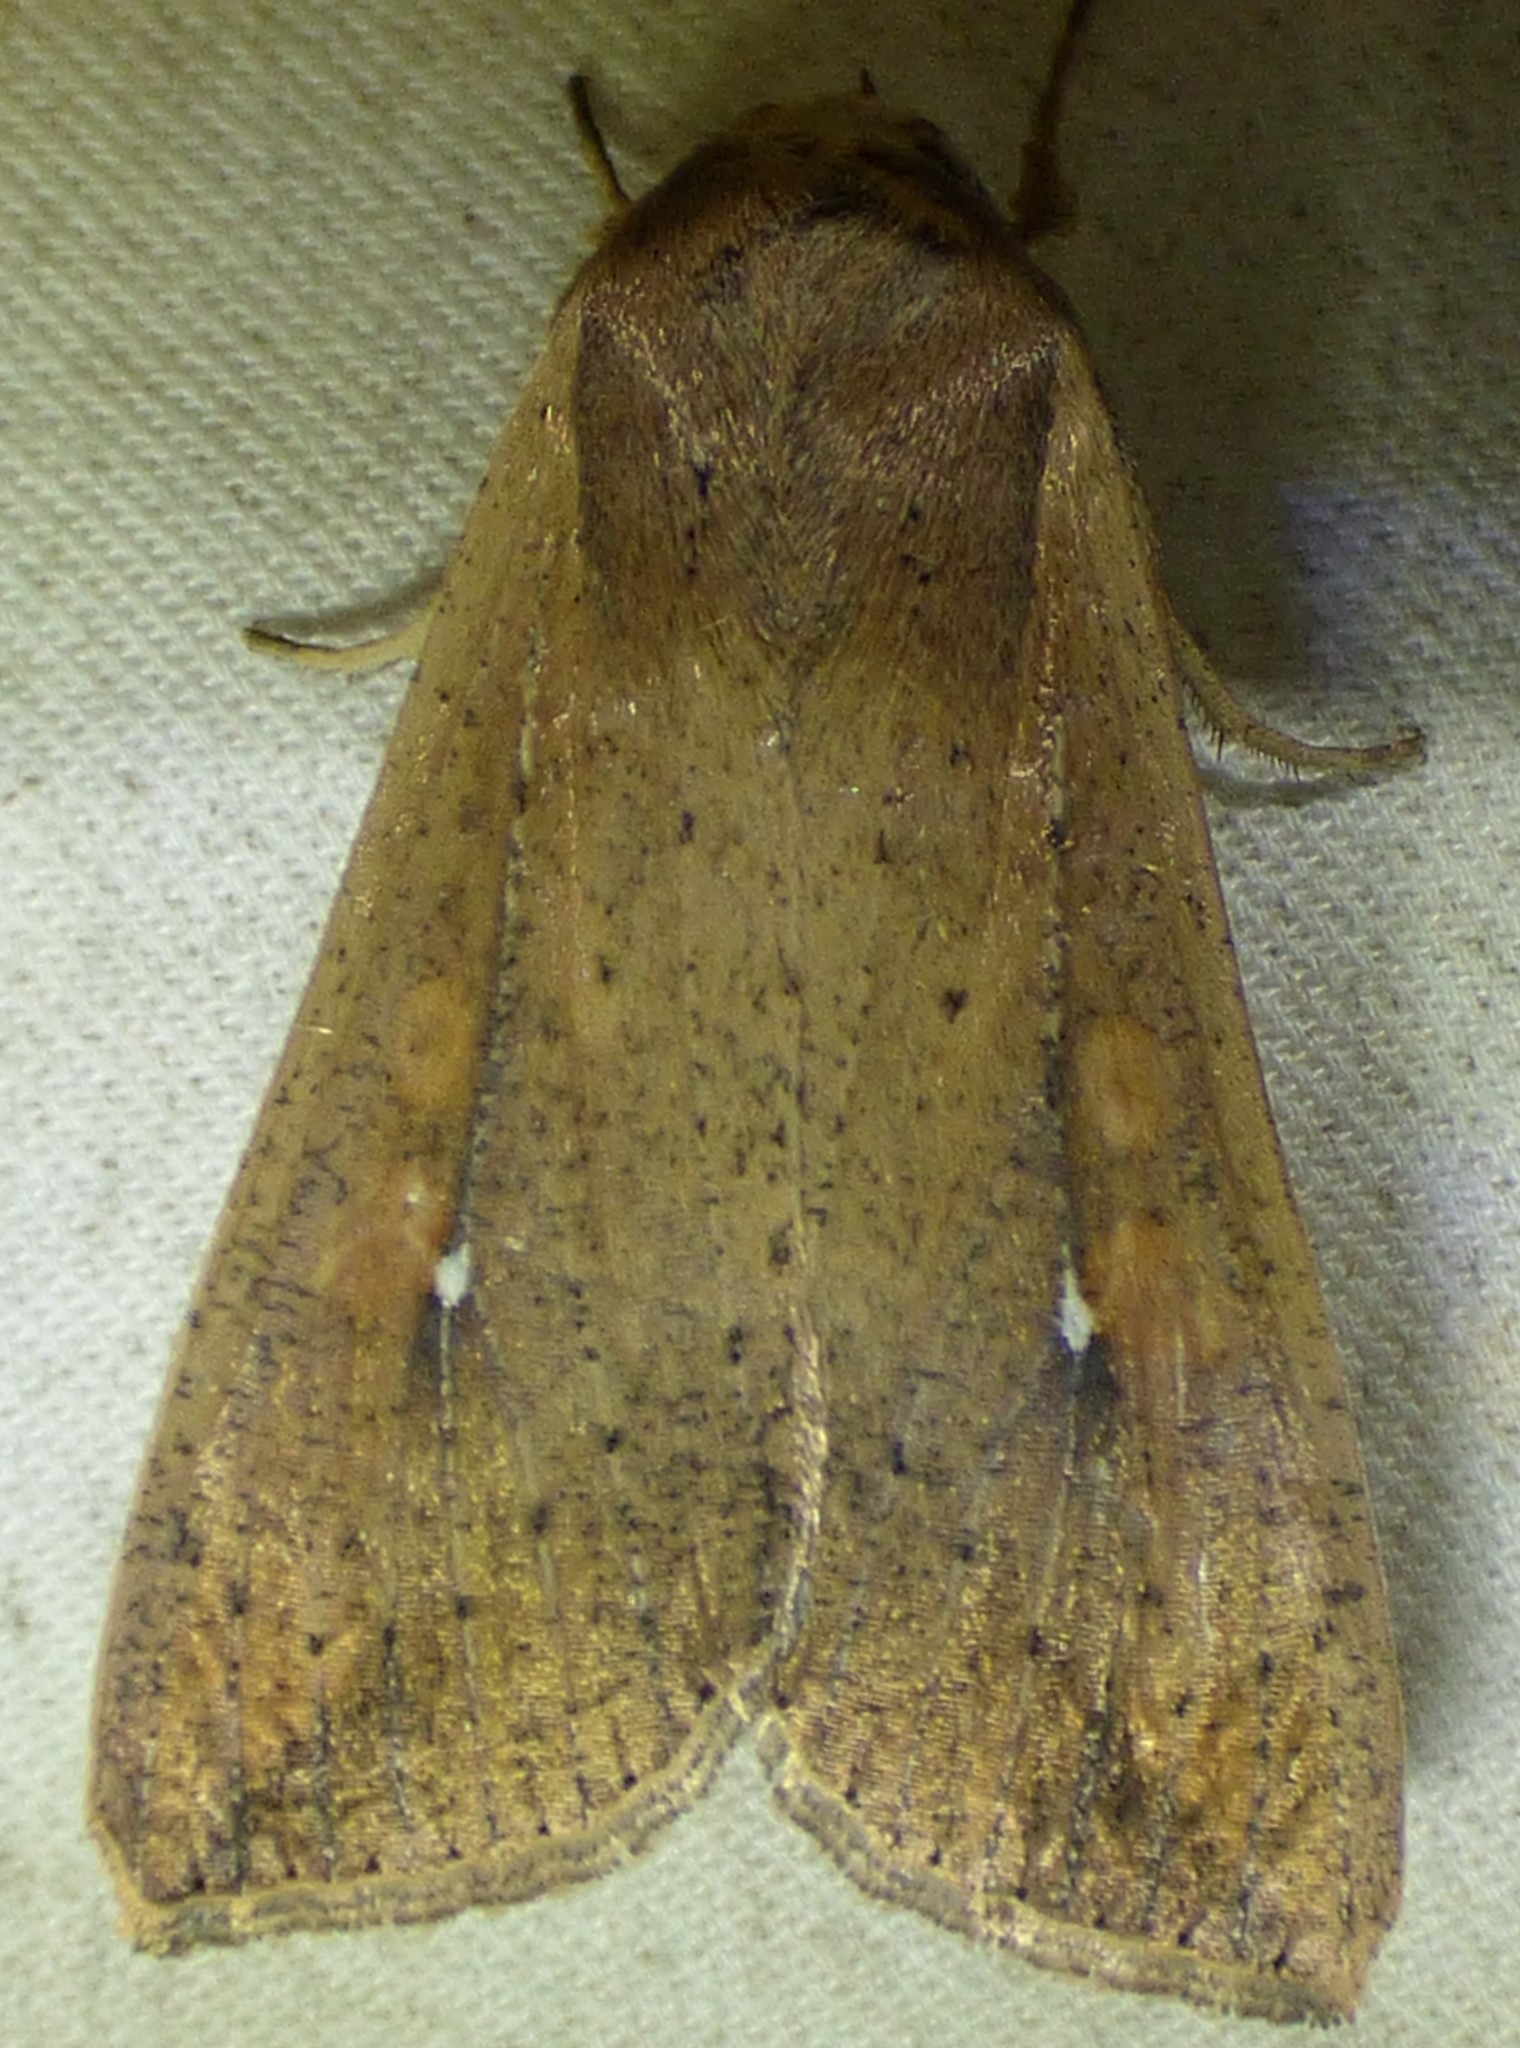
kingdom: Animalia
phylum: Arthropoda
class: Insecta
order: Lepidoptera
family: Noctuidae
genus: Mythimna
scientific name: Mythimna unipuncta
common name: White-speck
